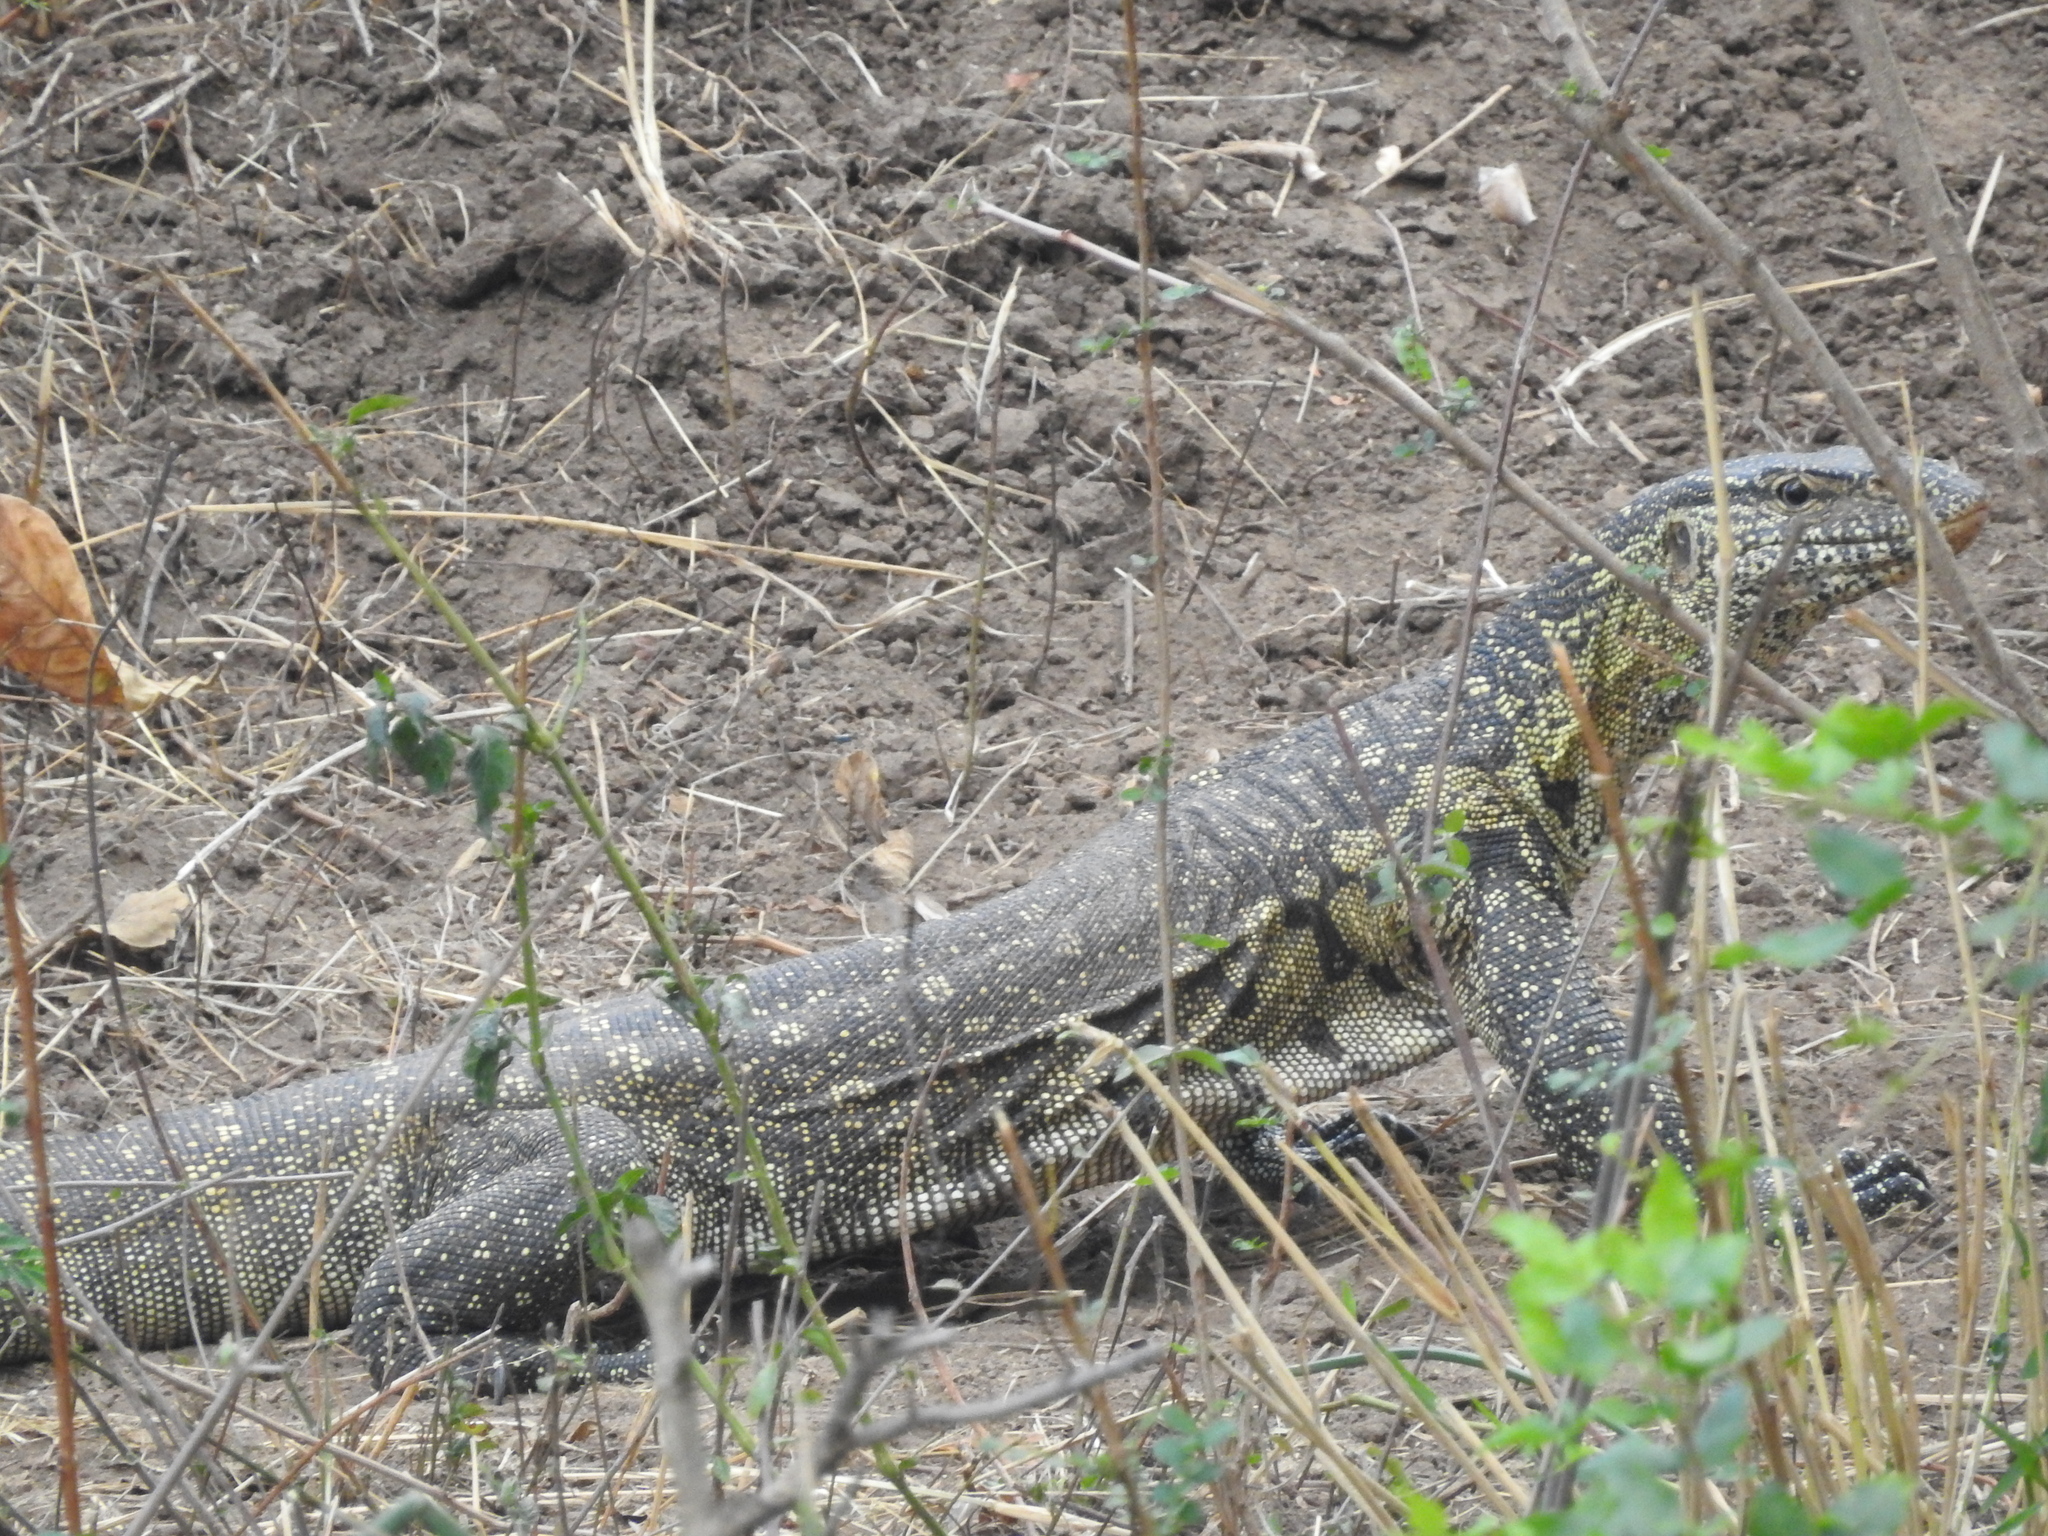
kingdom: Animalia
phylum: Chordata
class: Squamata
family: Varanidae
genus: Varanus
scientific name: Varanus niloticus
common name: Nile monitor
